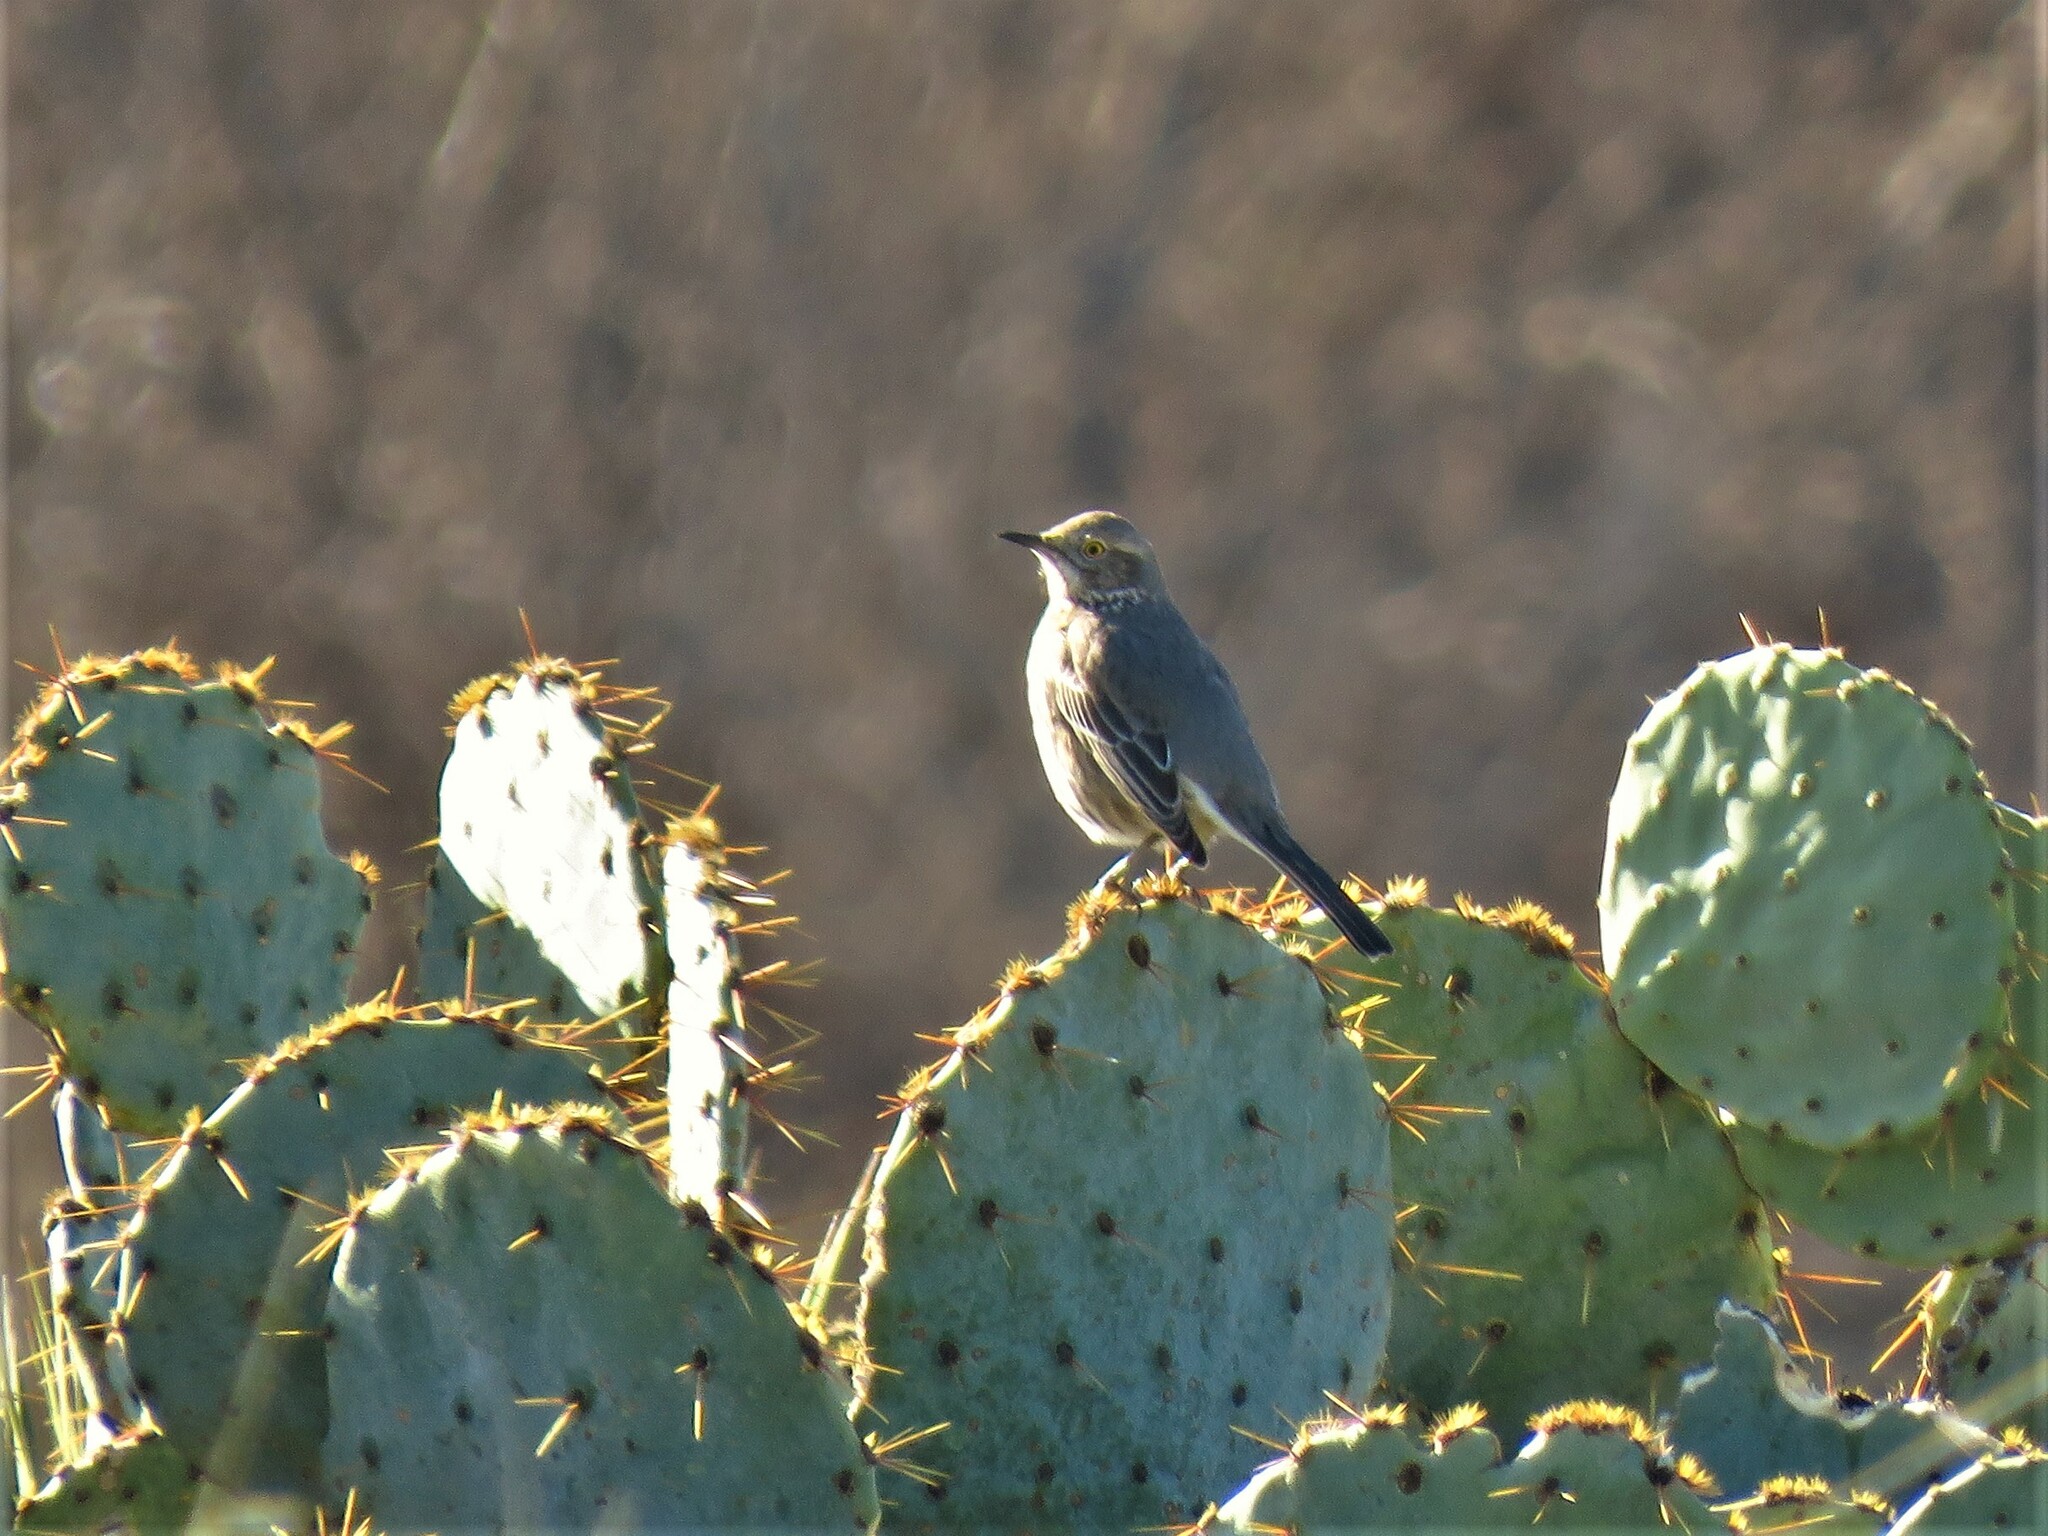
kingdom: Animalia
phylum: Chordata
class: Aves
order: Passeriformes
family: Mimidae
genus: Oreoscoptes
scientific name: Oreoscoptes montanus
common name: Sage thrasher
